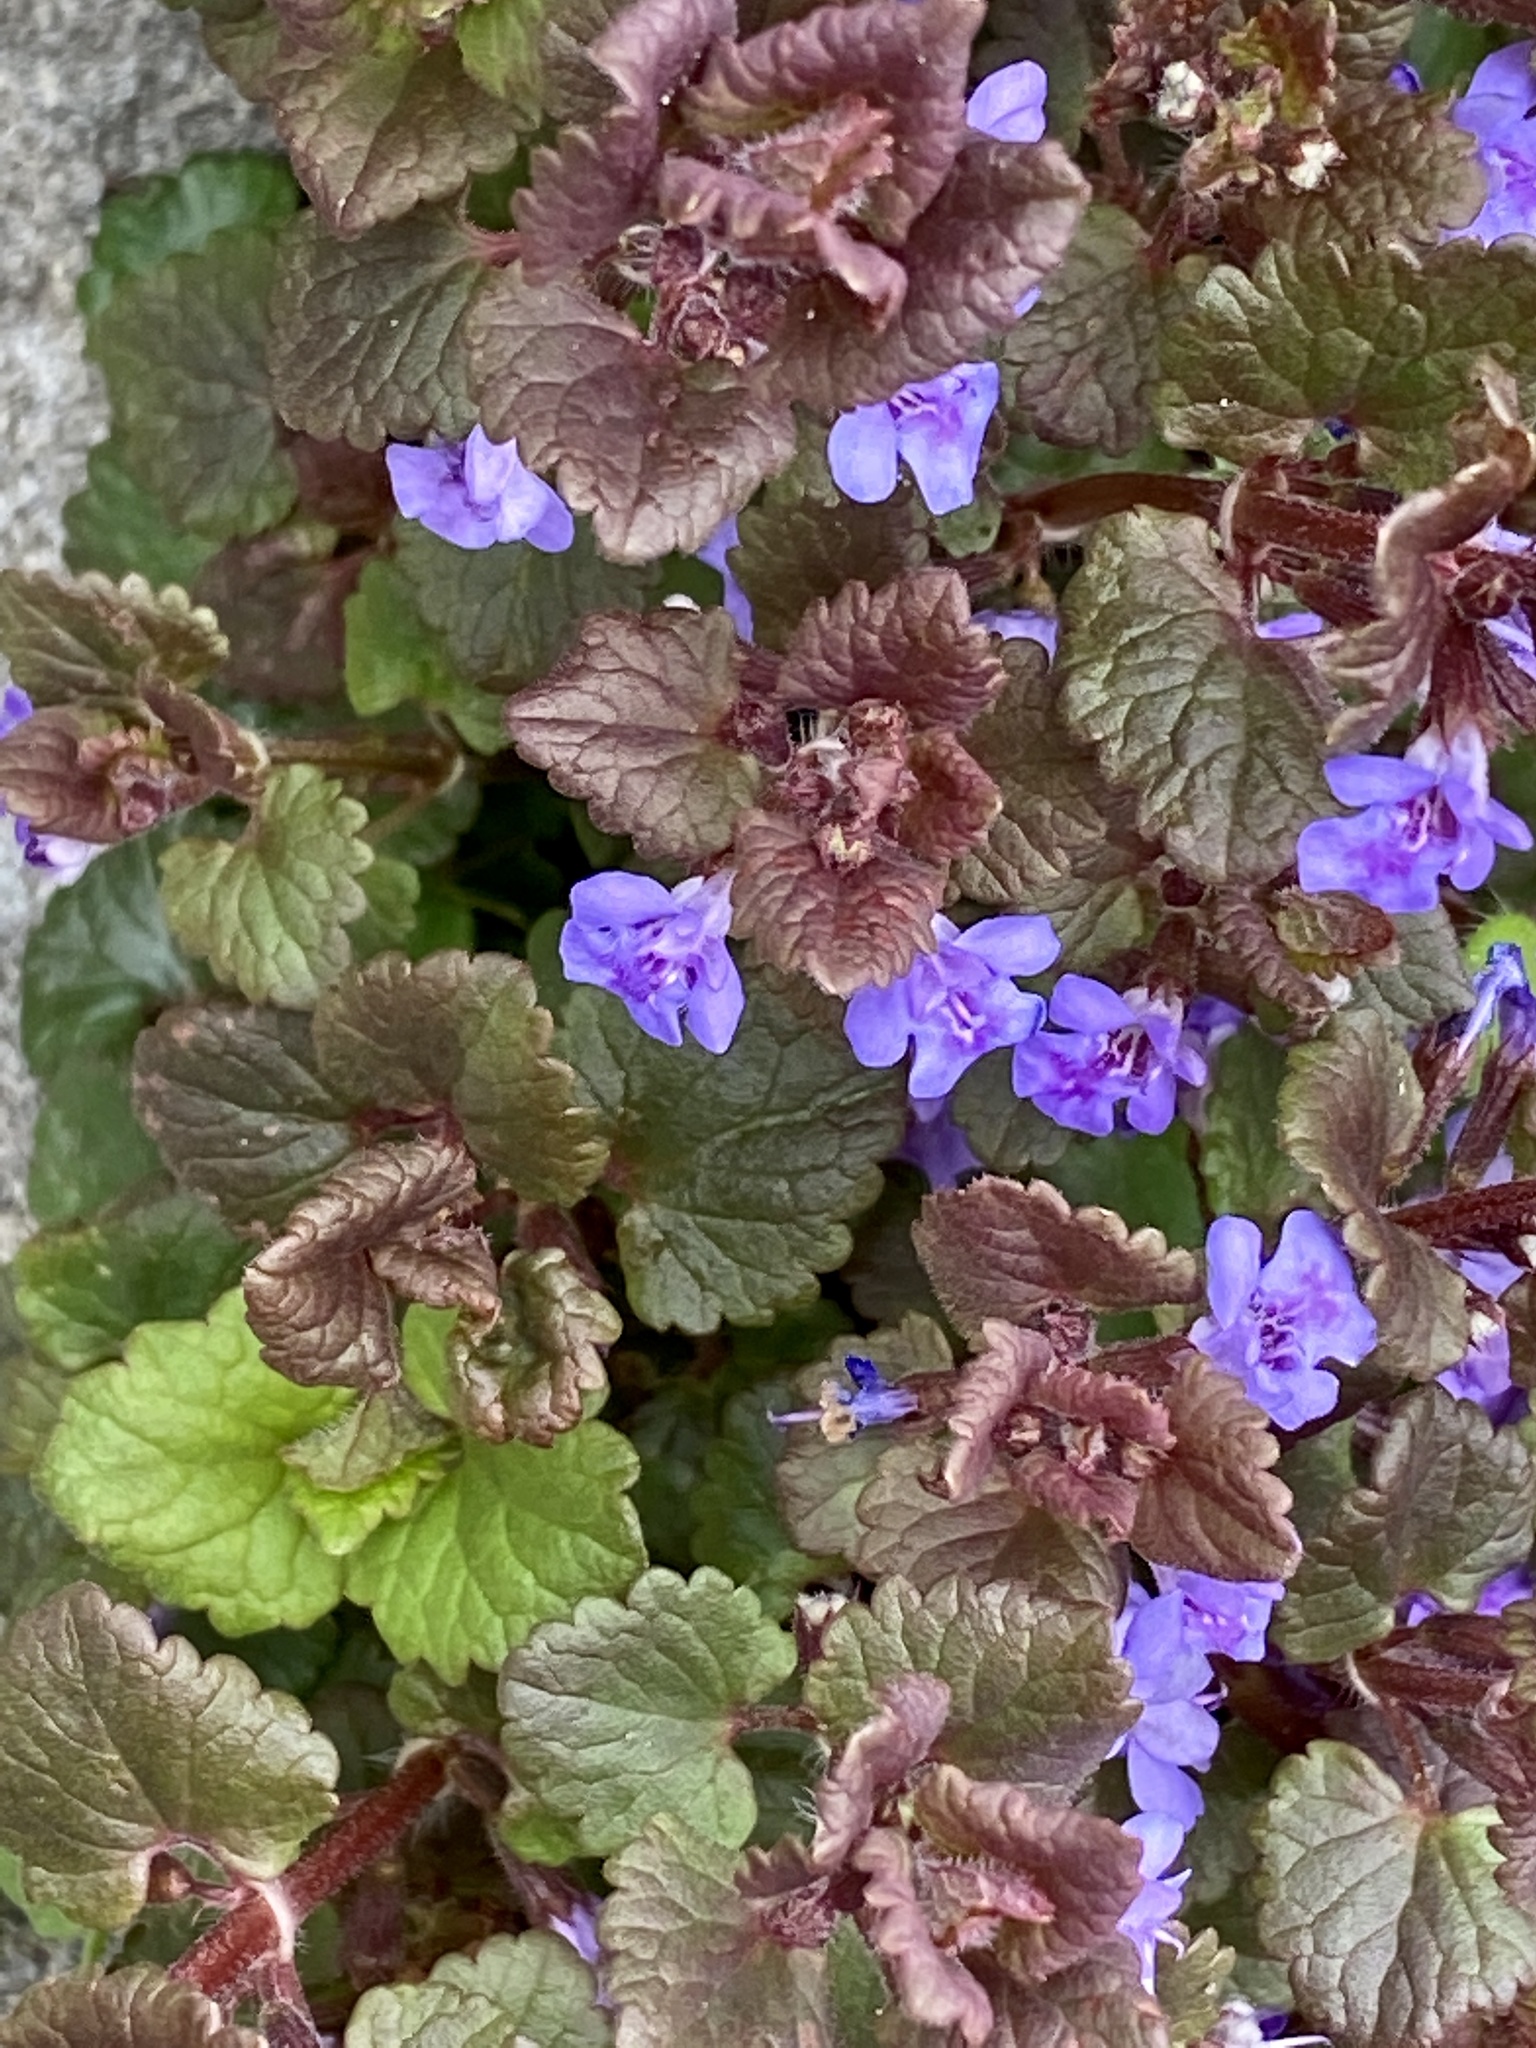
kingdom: Plantae
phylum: Tracheophyta
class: Magnoliopsida
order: Lamiales
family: Lamiaceae
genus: Glechoma
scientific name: Glechoma hederacea
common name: Ground ivy
